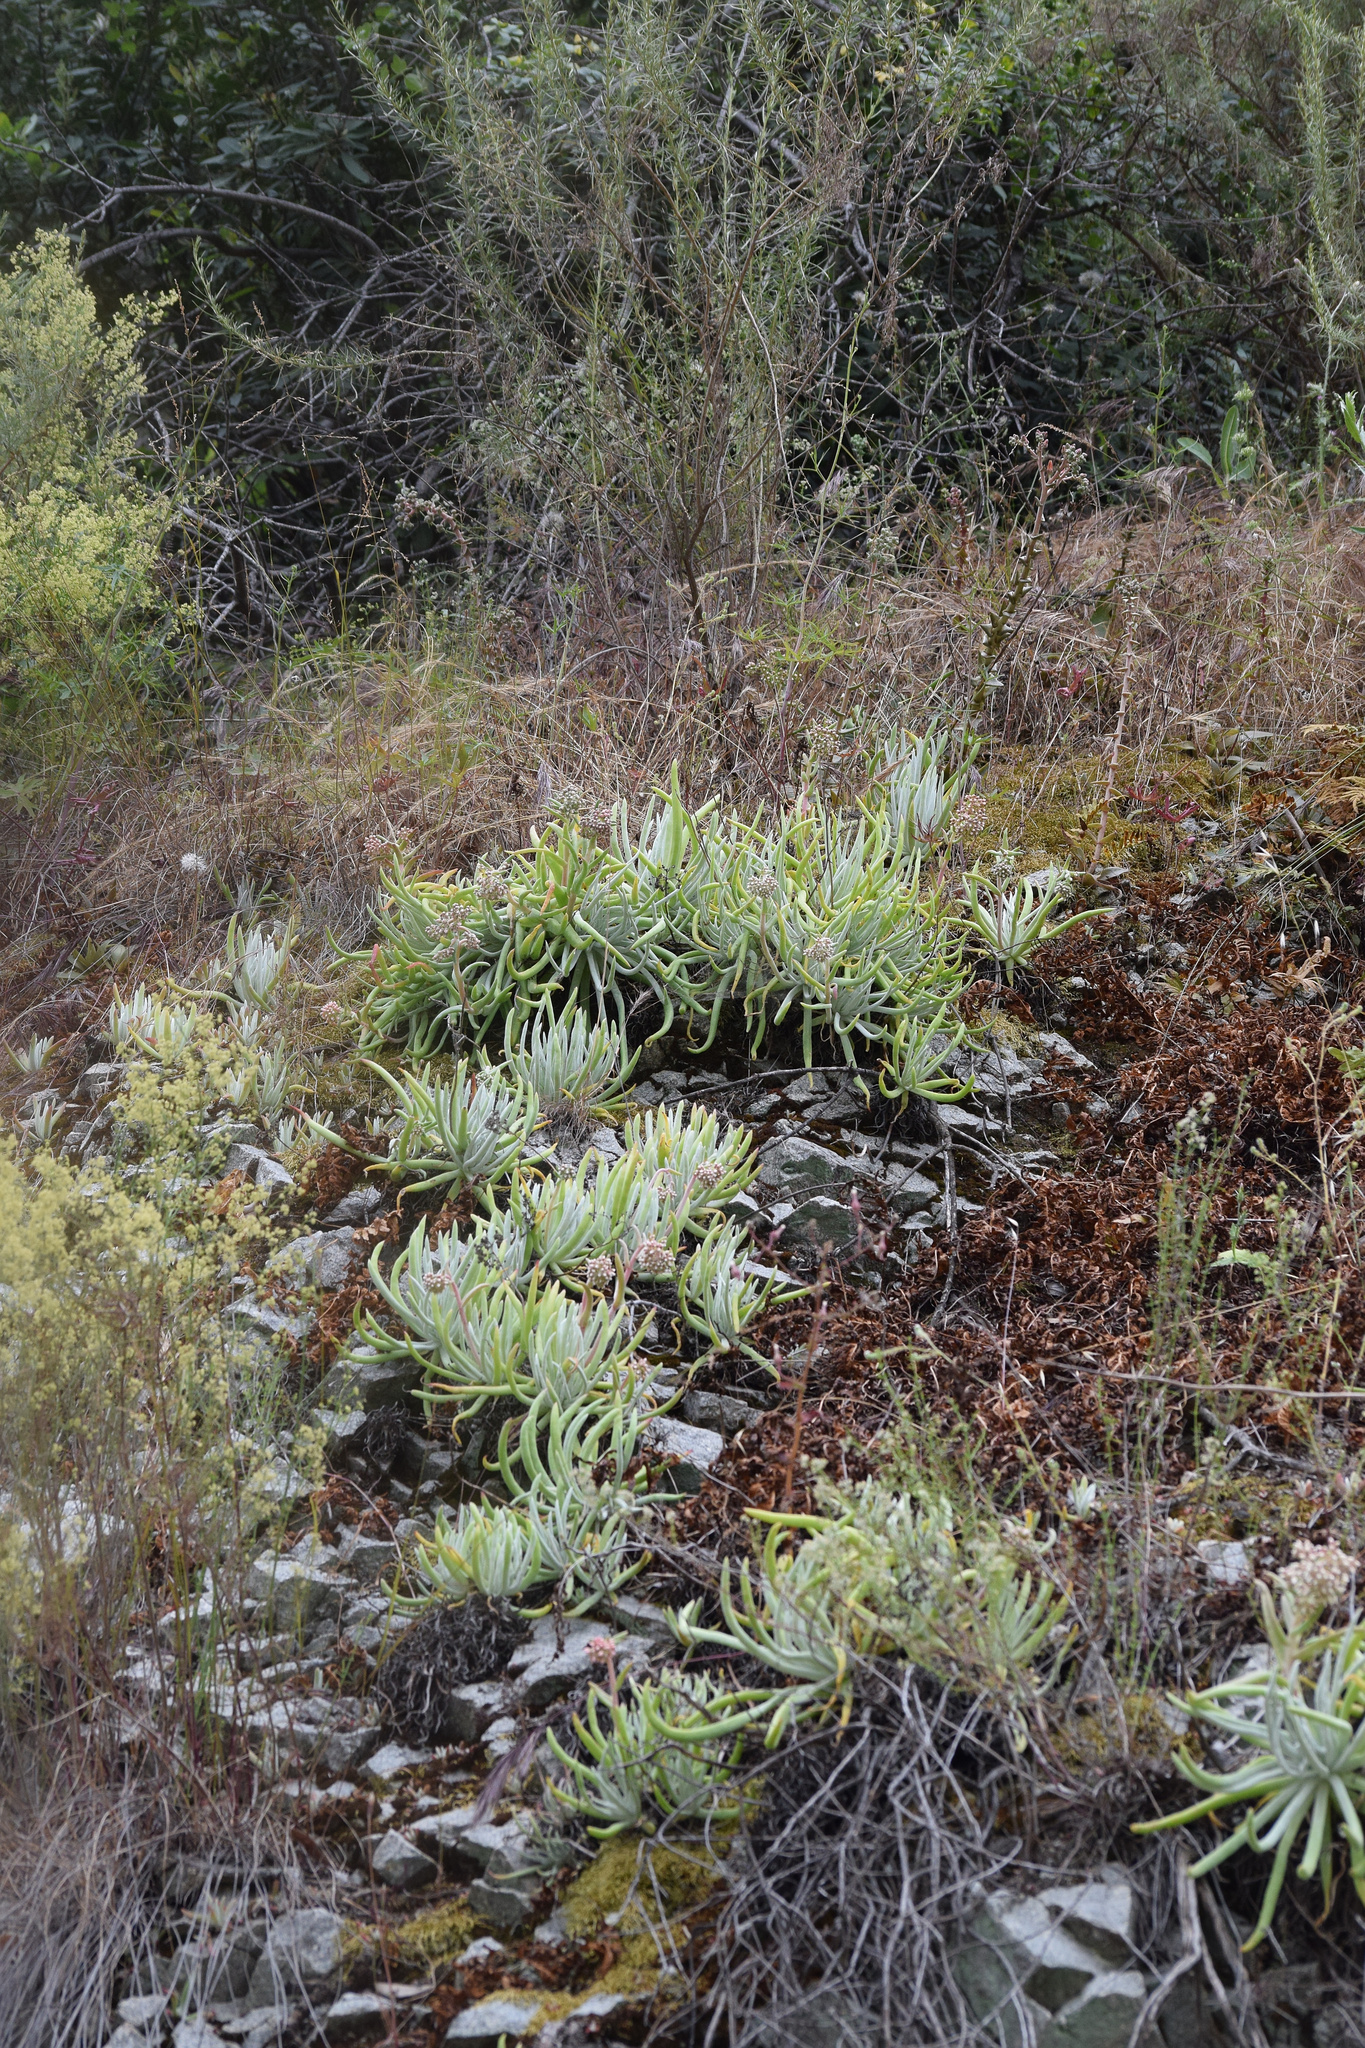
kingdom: Plantae
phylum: Tracheophyta
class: Magnoliopsida
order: Saxifragales
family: Crassulaceae
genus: Dudleya
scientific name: Dudleya densiflora
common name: San gabriel mountains dudleya
